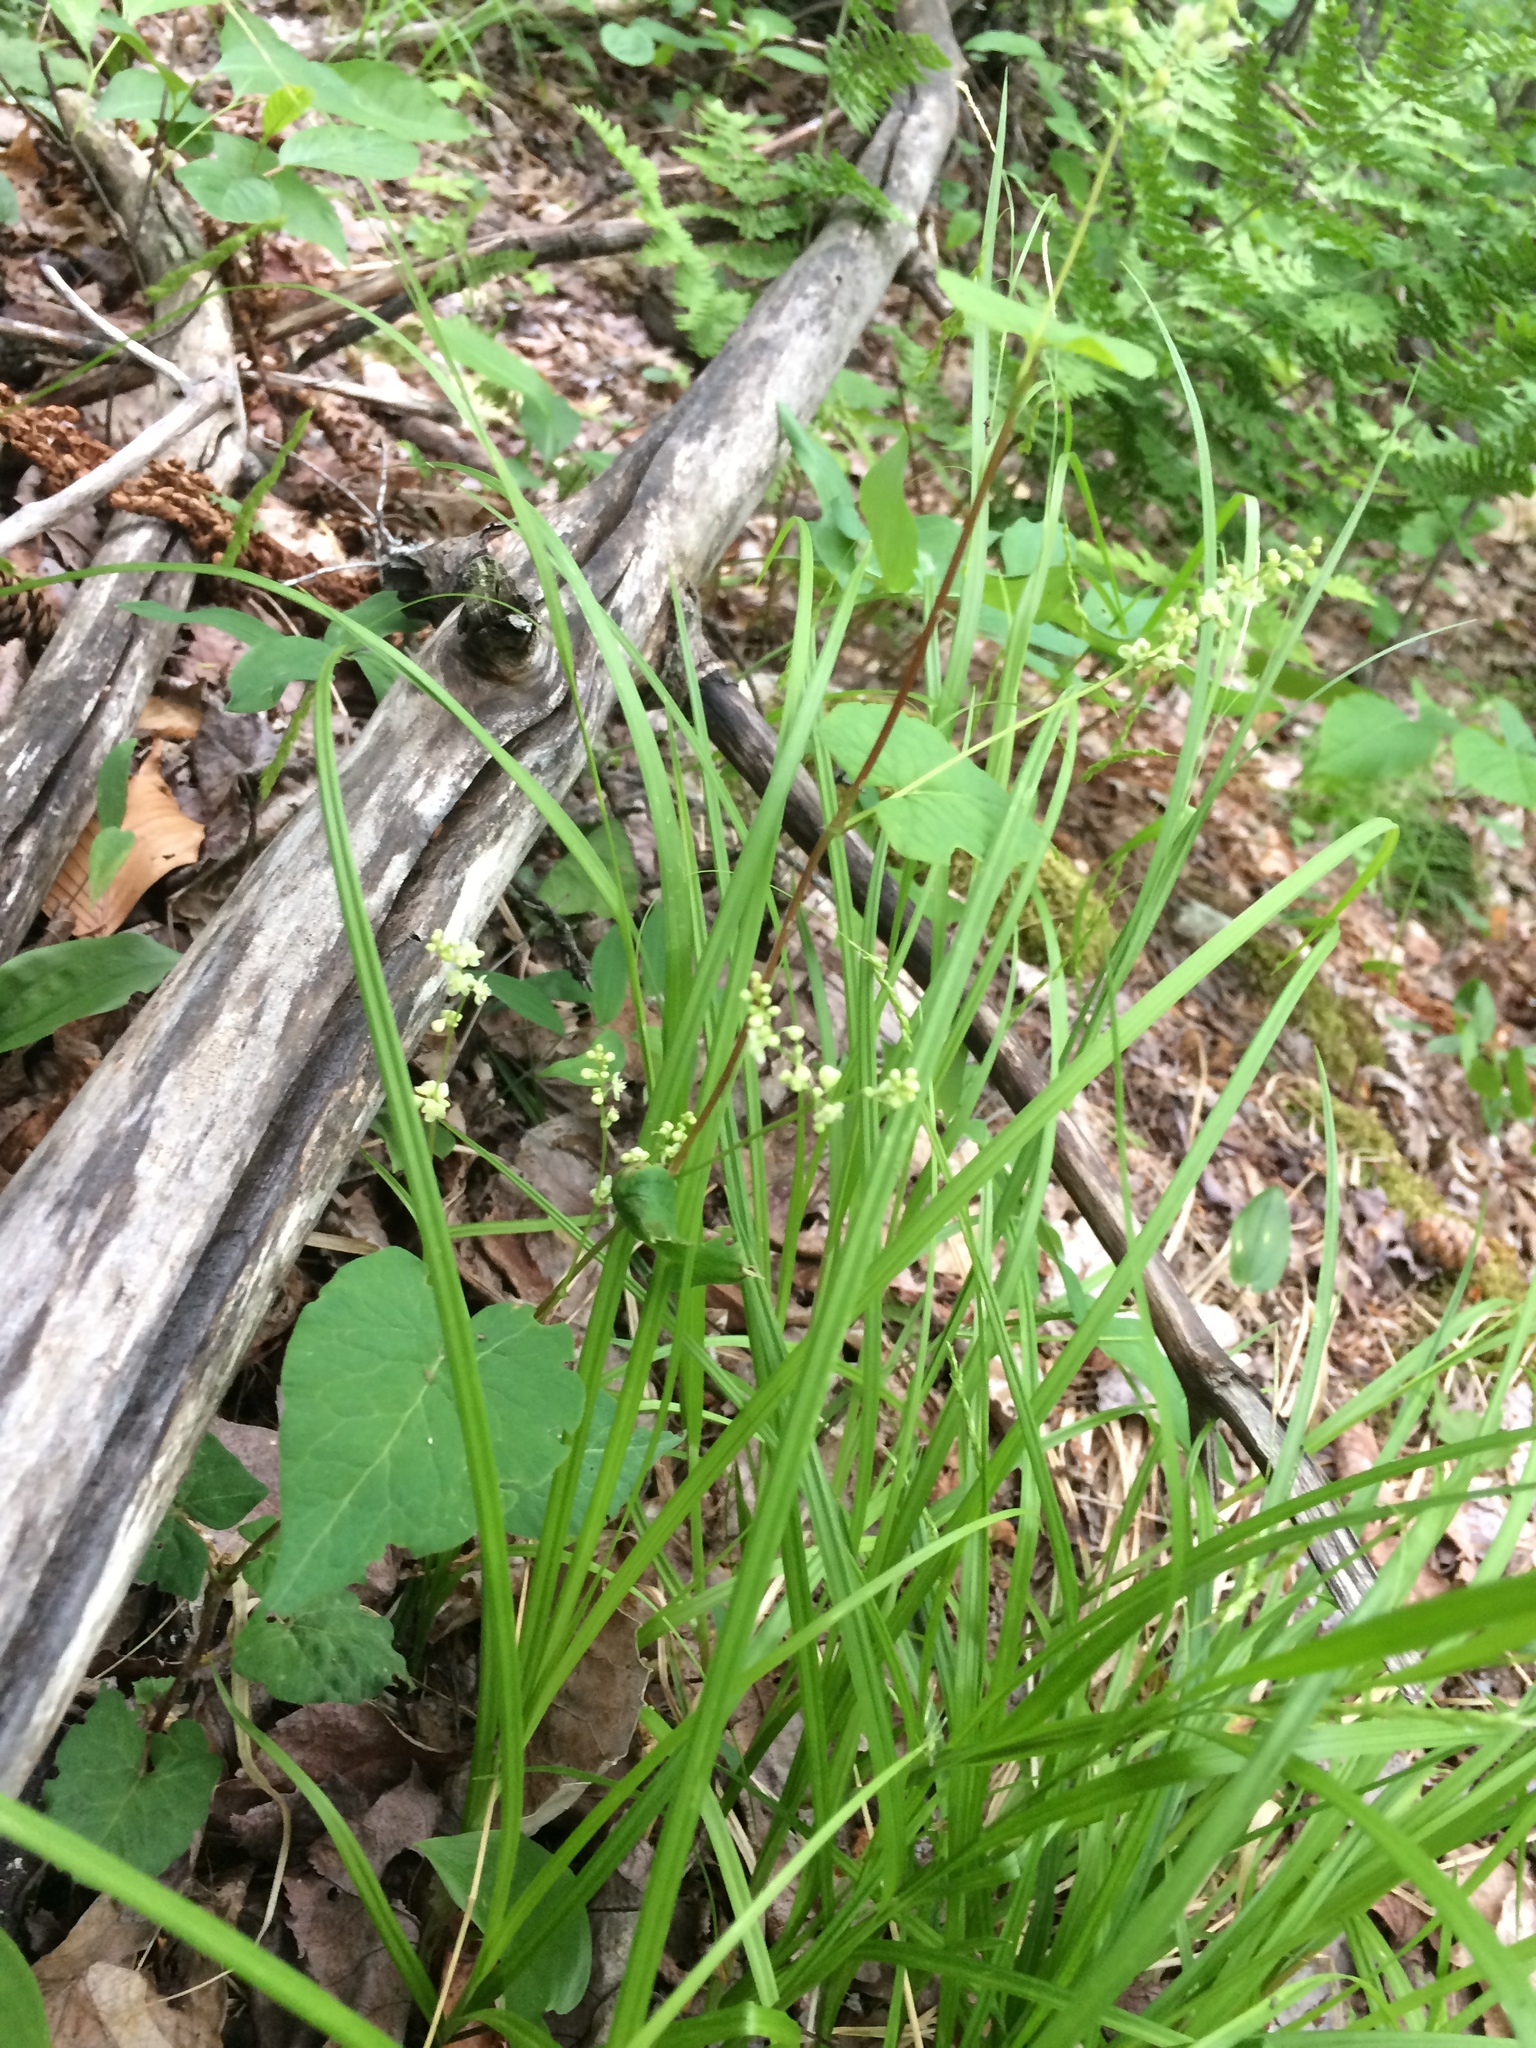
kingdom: Plantae
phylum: Tracheophyta
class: Magnoliopsida
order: Caryophyllales
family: Polygonaceae
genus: Parogonum
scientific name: Parogonum ciliinode
